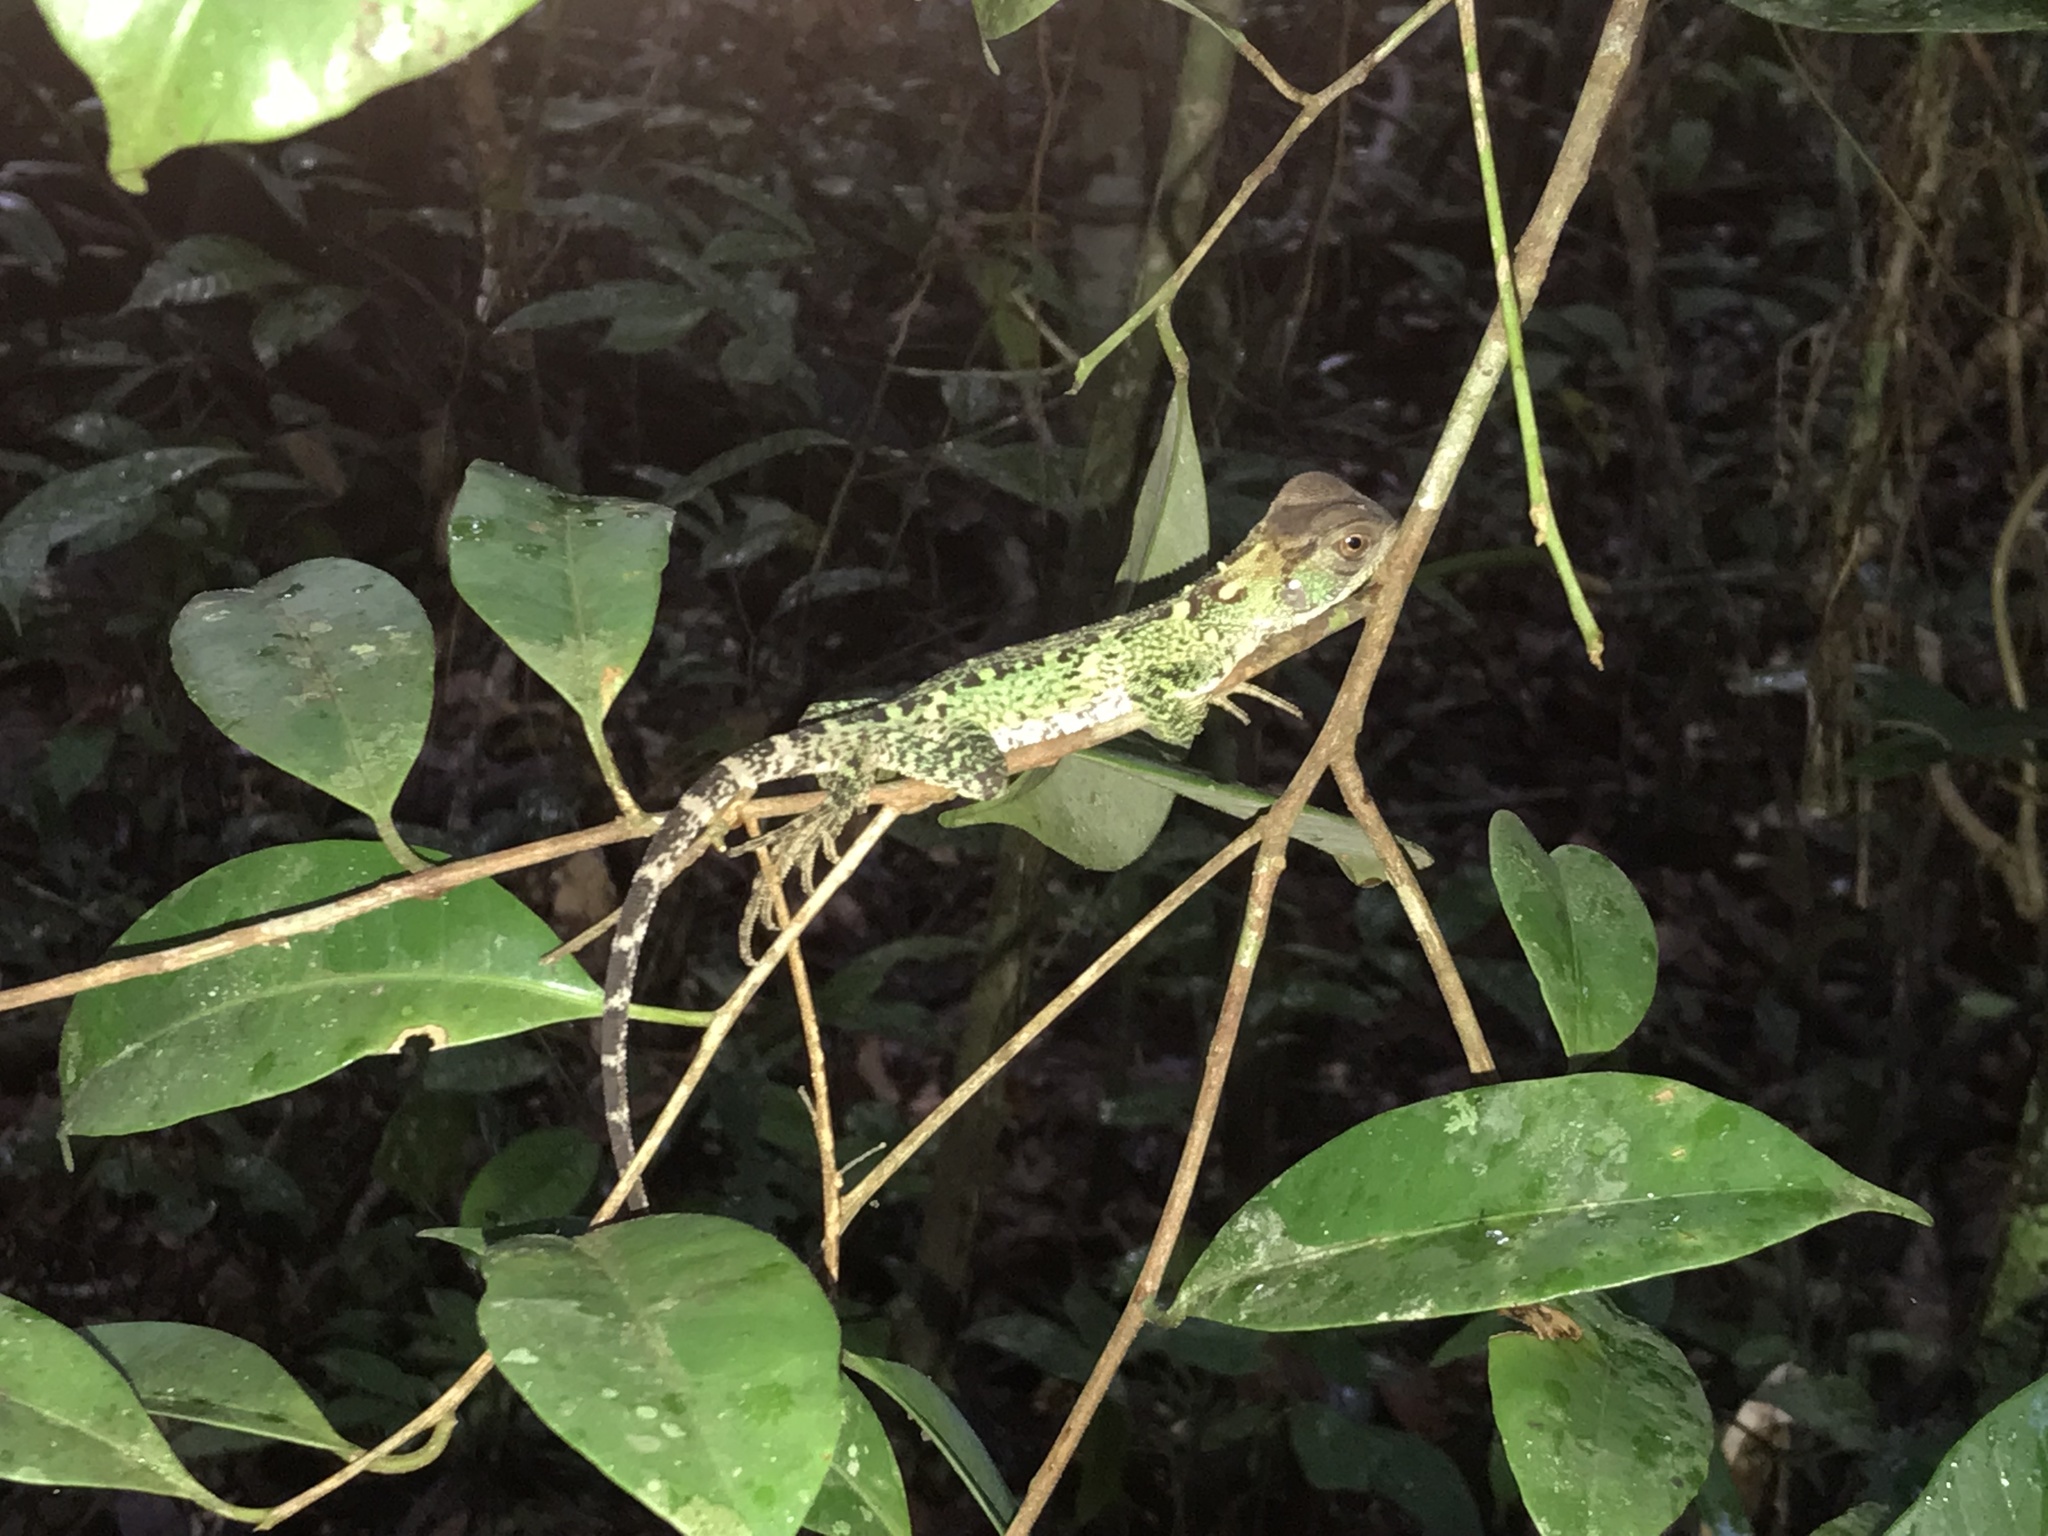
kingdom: Animalia
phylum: Chordata
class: Squamata
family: Hoplocercidae
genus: Enyalioides
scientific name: Enyalioides laticeps
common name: Guichenot's dwarf iguana
